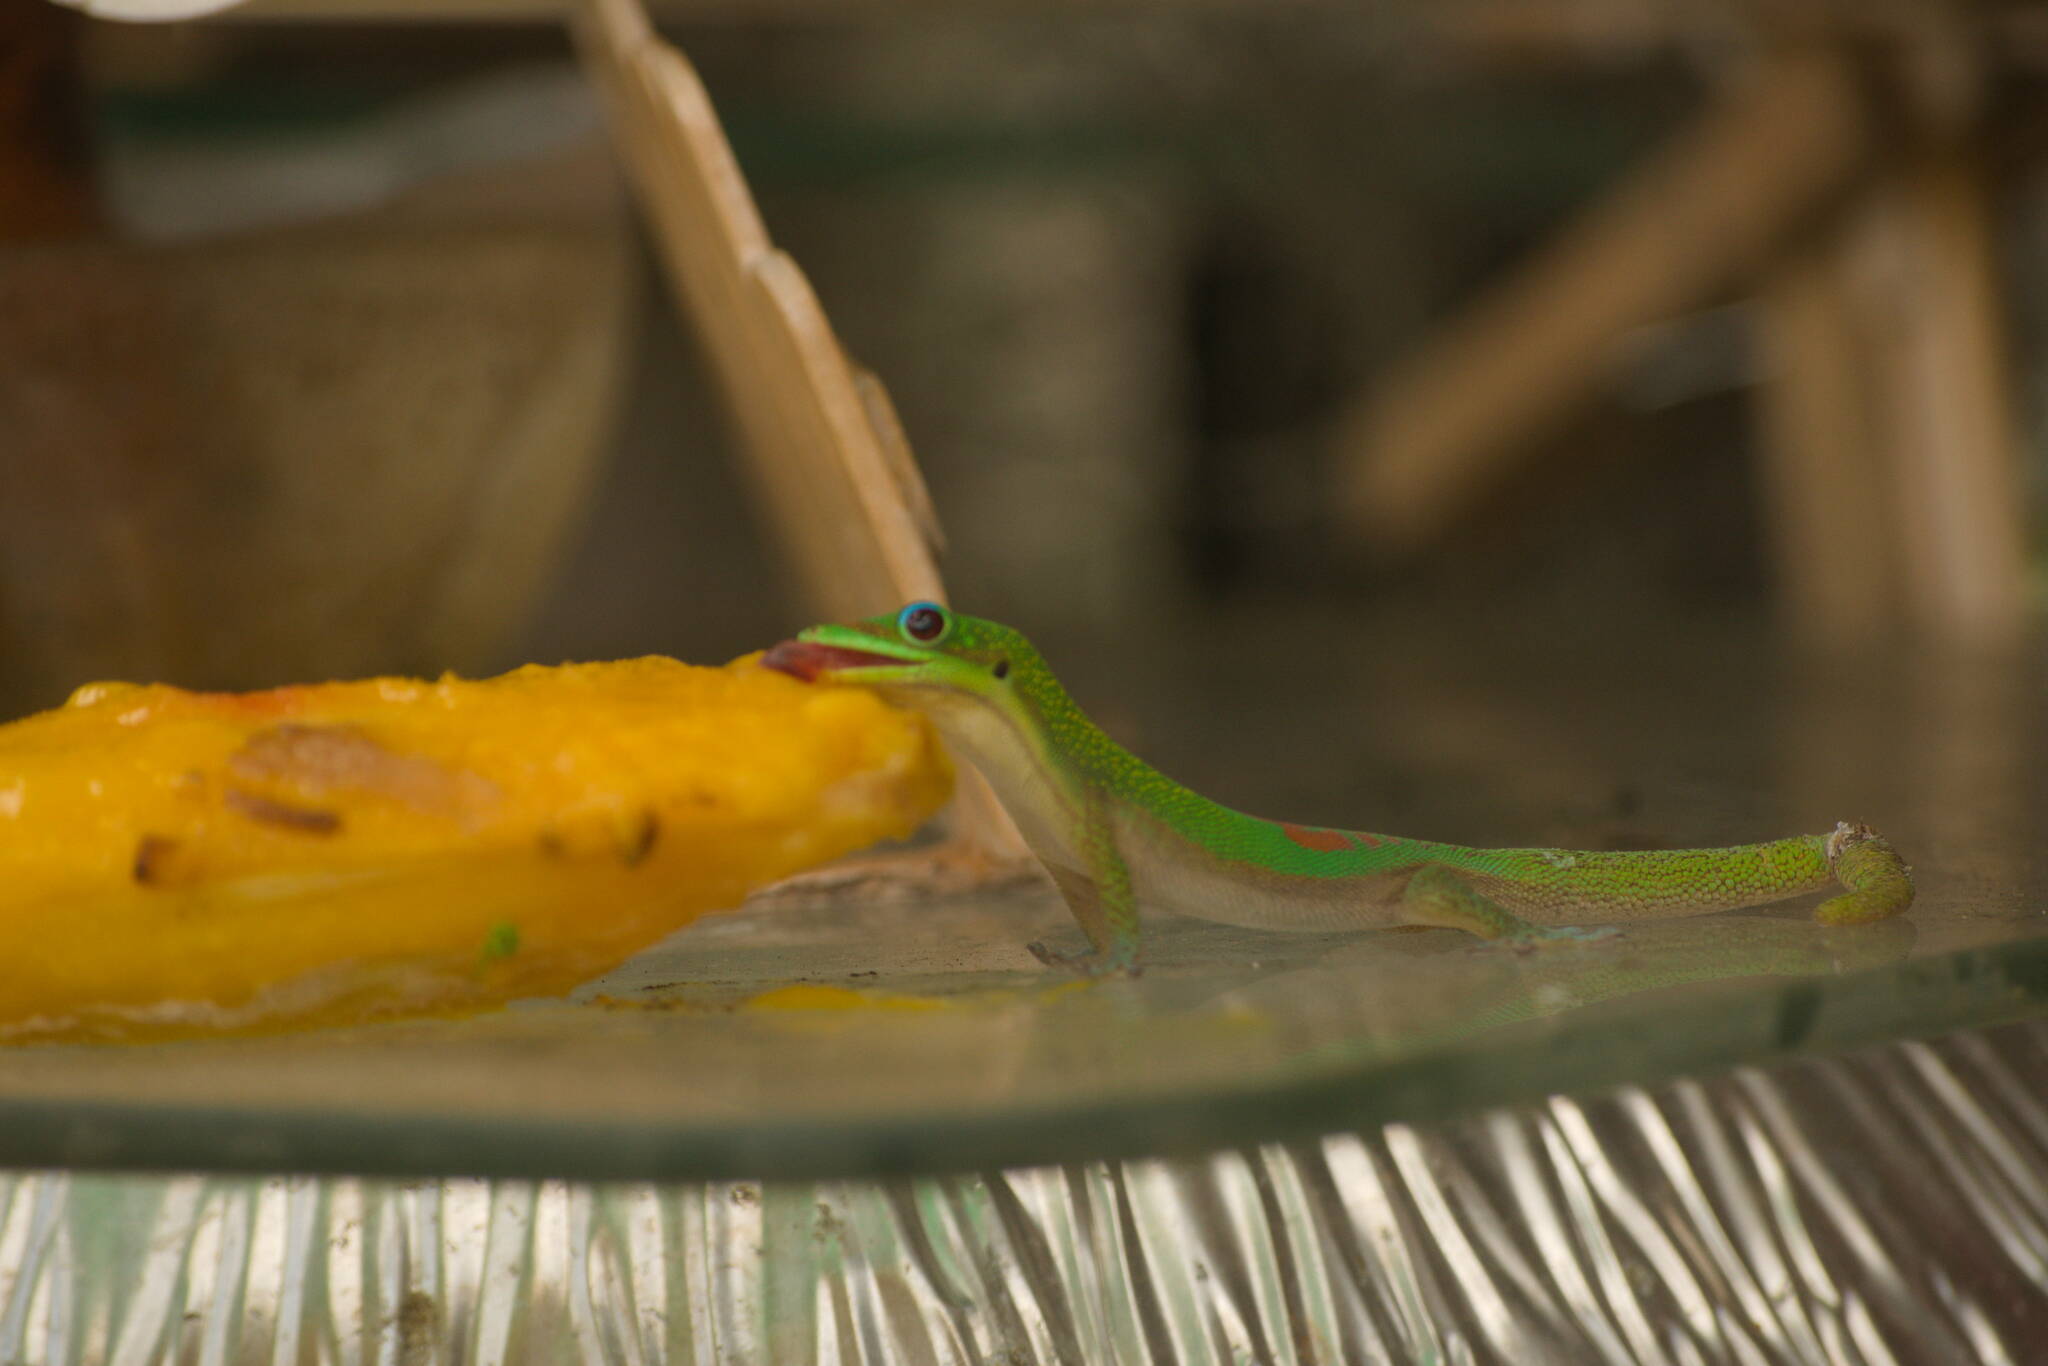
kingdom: Animalia
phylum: Chordata
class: Squamata
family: Gekkonidae
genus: Phelsuma
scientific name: Phelsuma laticauda
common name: Gold dust day gecko
